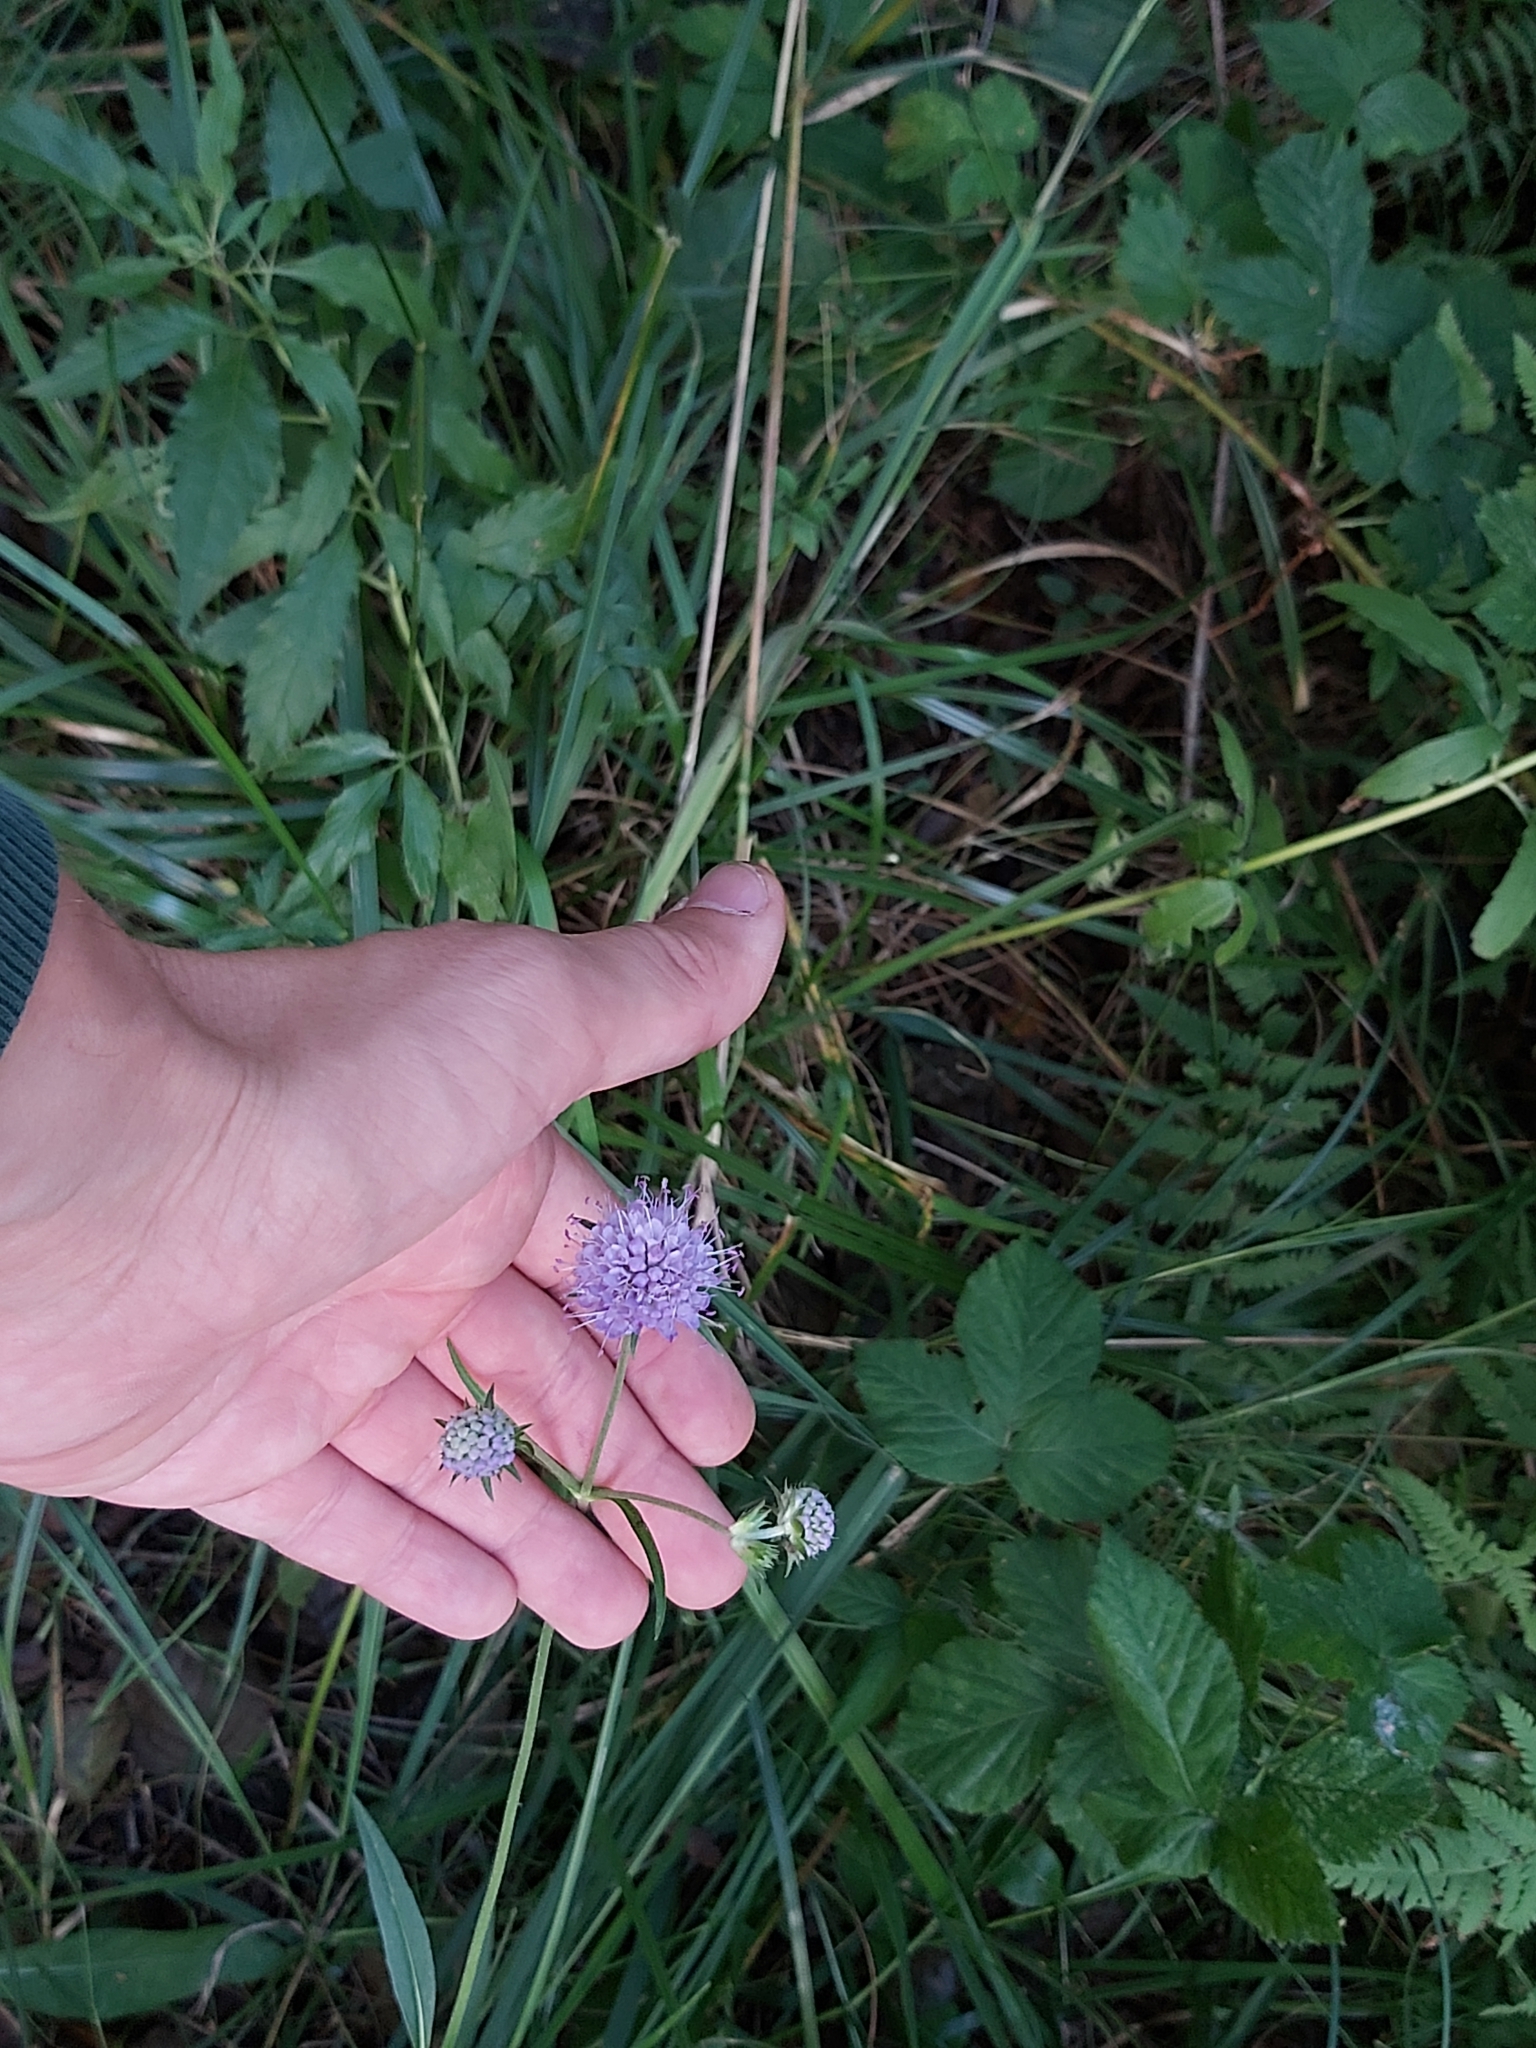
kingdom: Plantae
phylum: Tracheophyta
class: Magnoliopsida
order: Dipsacales
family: Caprifoliaceae
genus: Succisa
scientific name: Succisa pratensis
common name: Devil's-bit
